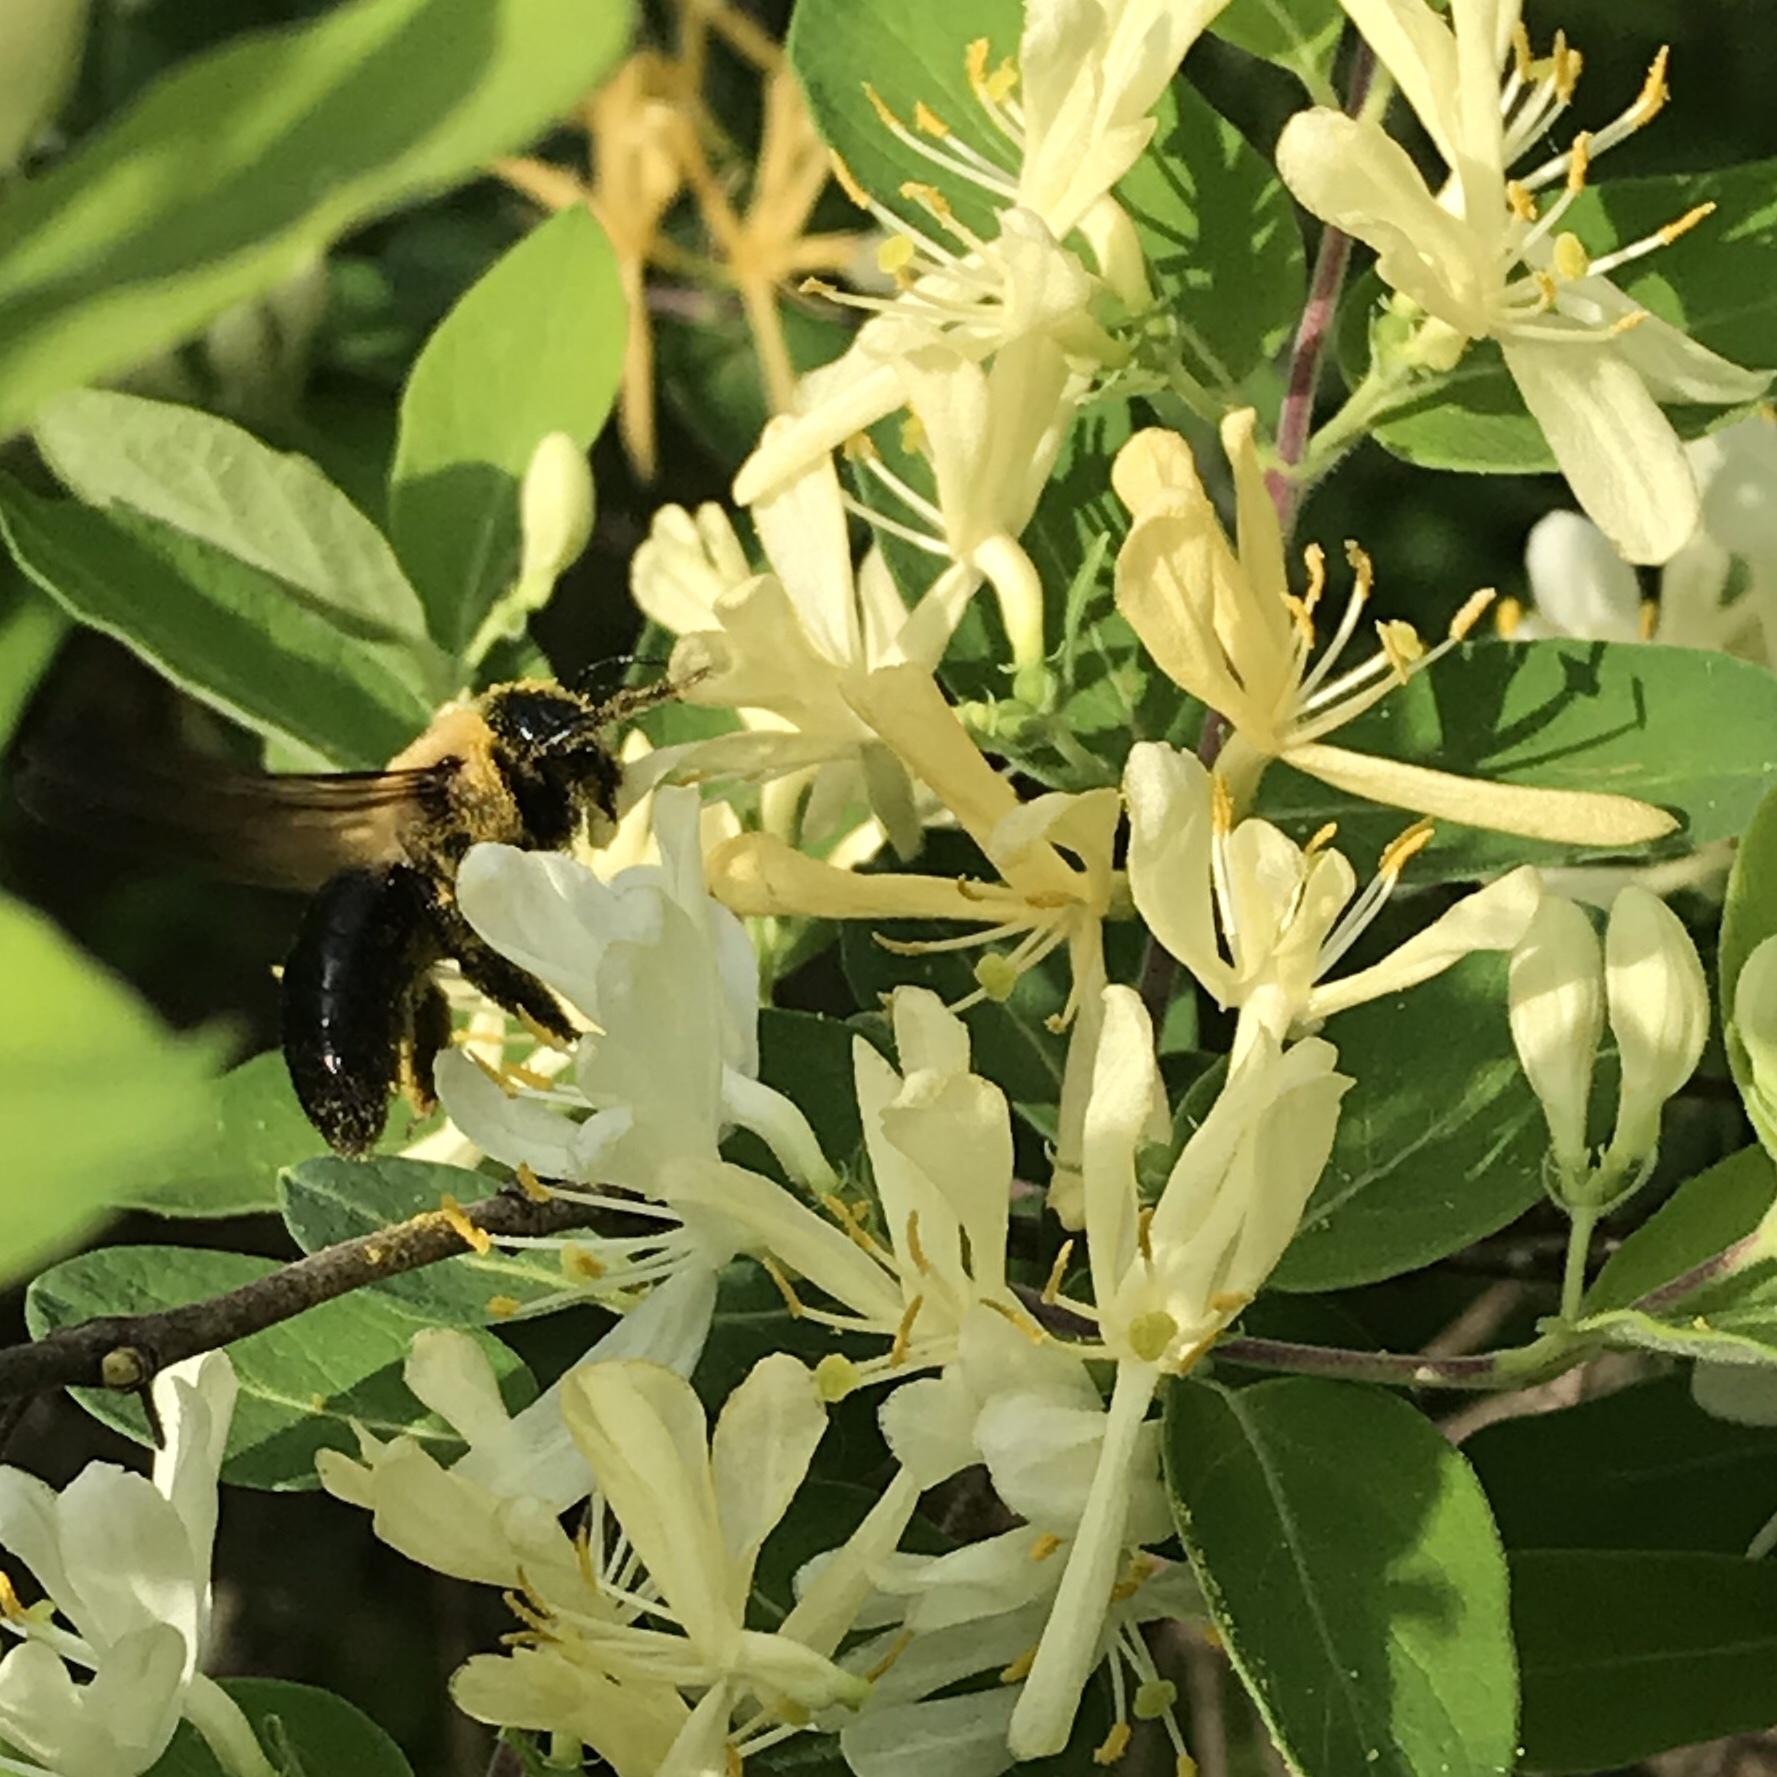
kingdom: Animalia
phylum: Arthropoda
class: Insecta
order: Hymenoptera
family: Apidae
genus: Xylocopa
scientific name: Xylocopa virginica
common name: Carpenter bee
